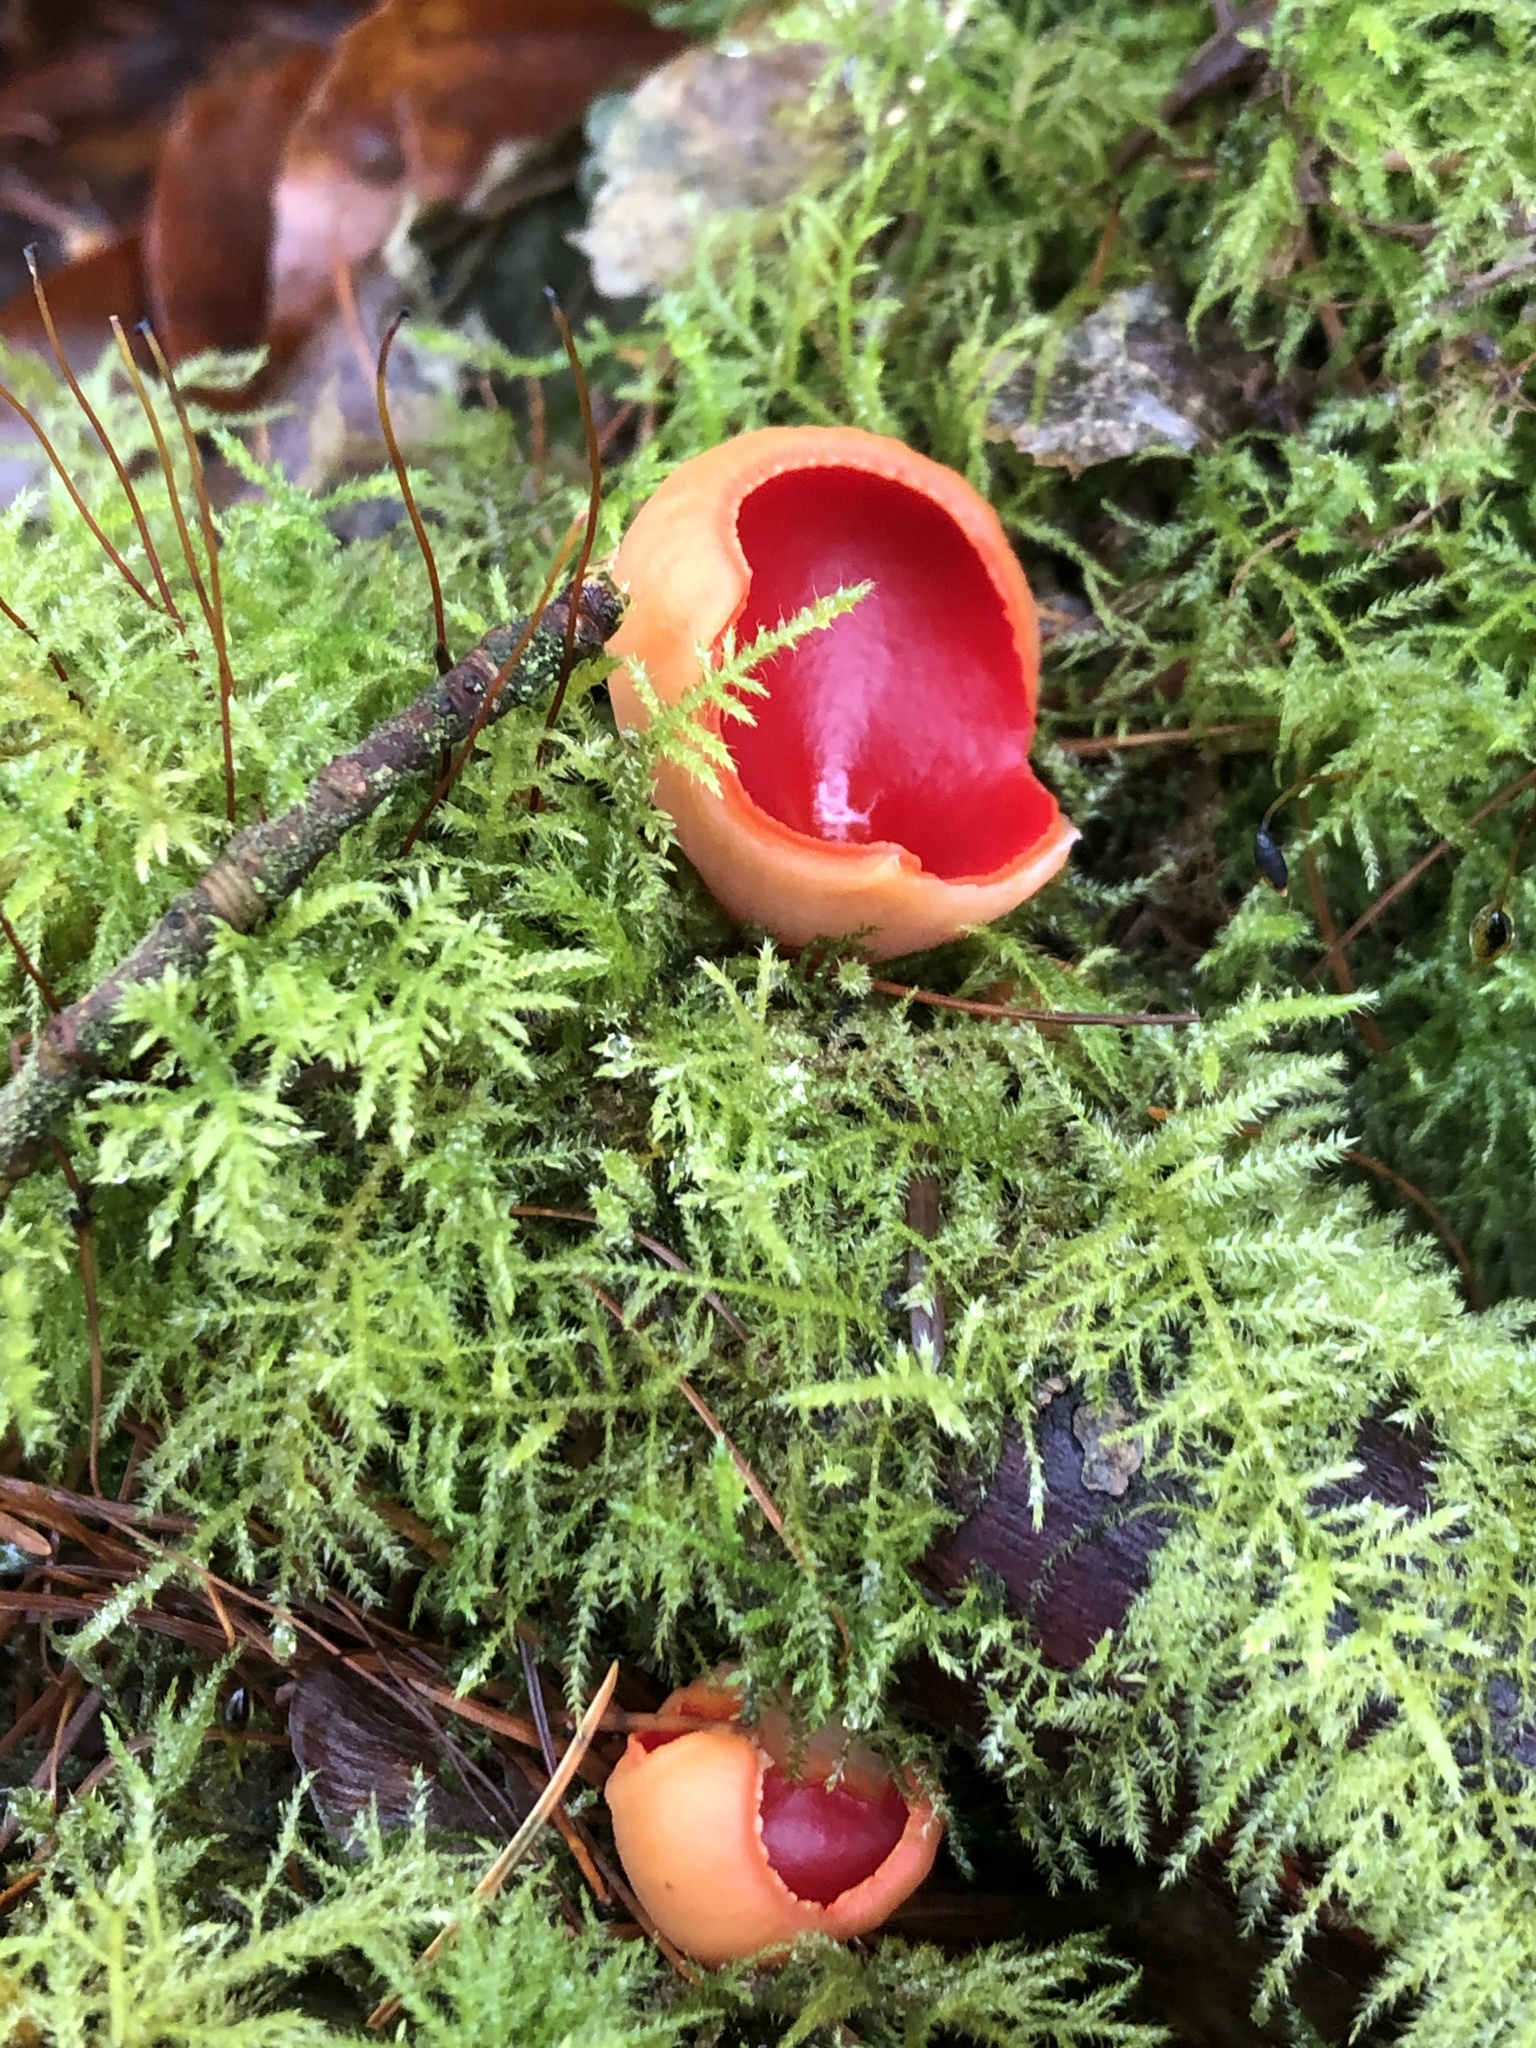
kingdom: Fungi
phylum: Ascomycota
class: Pezizomycetes
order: Pezizales
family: Sarcoscyphaceae
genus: Sarcoscypha
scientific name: Sarcoscypha
